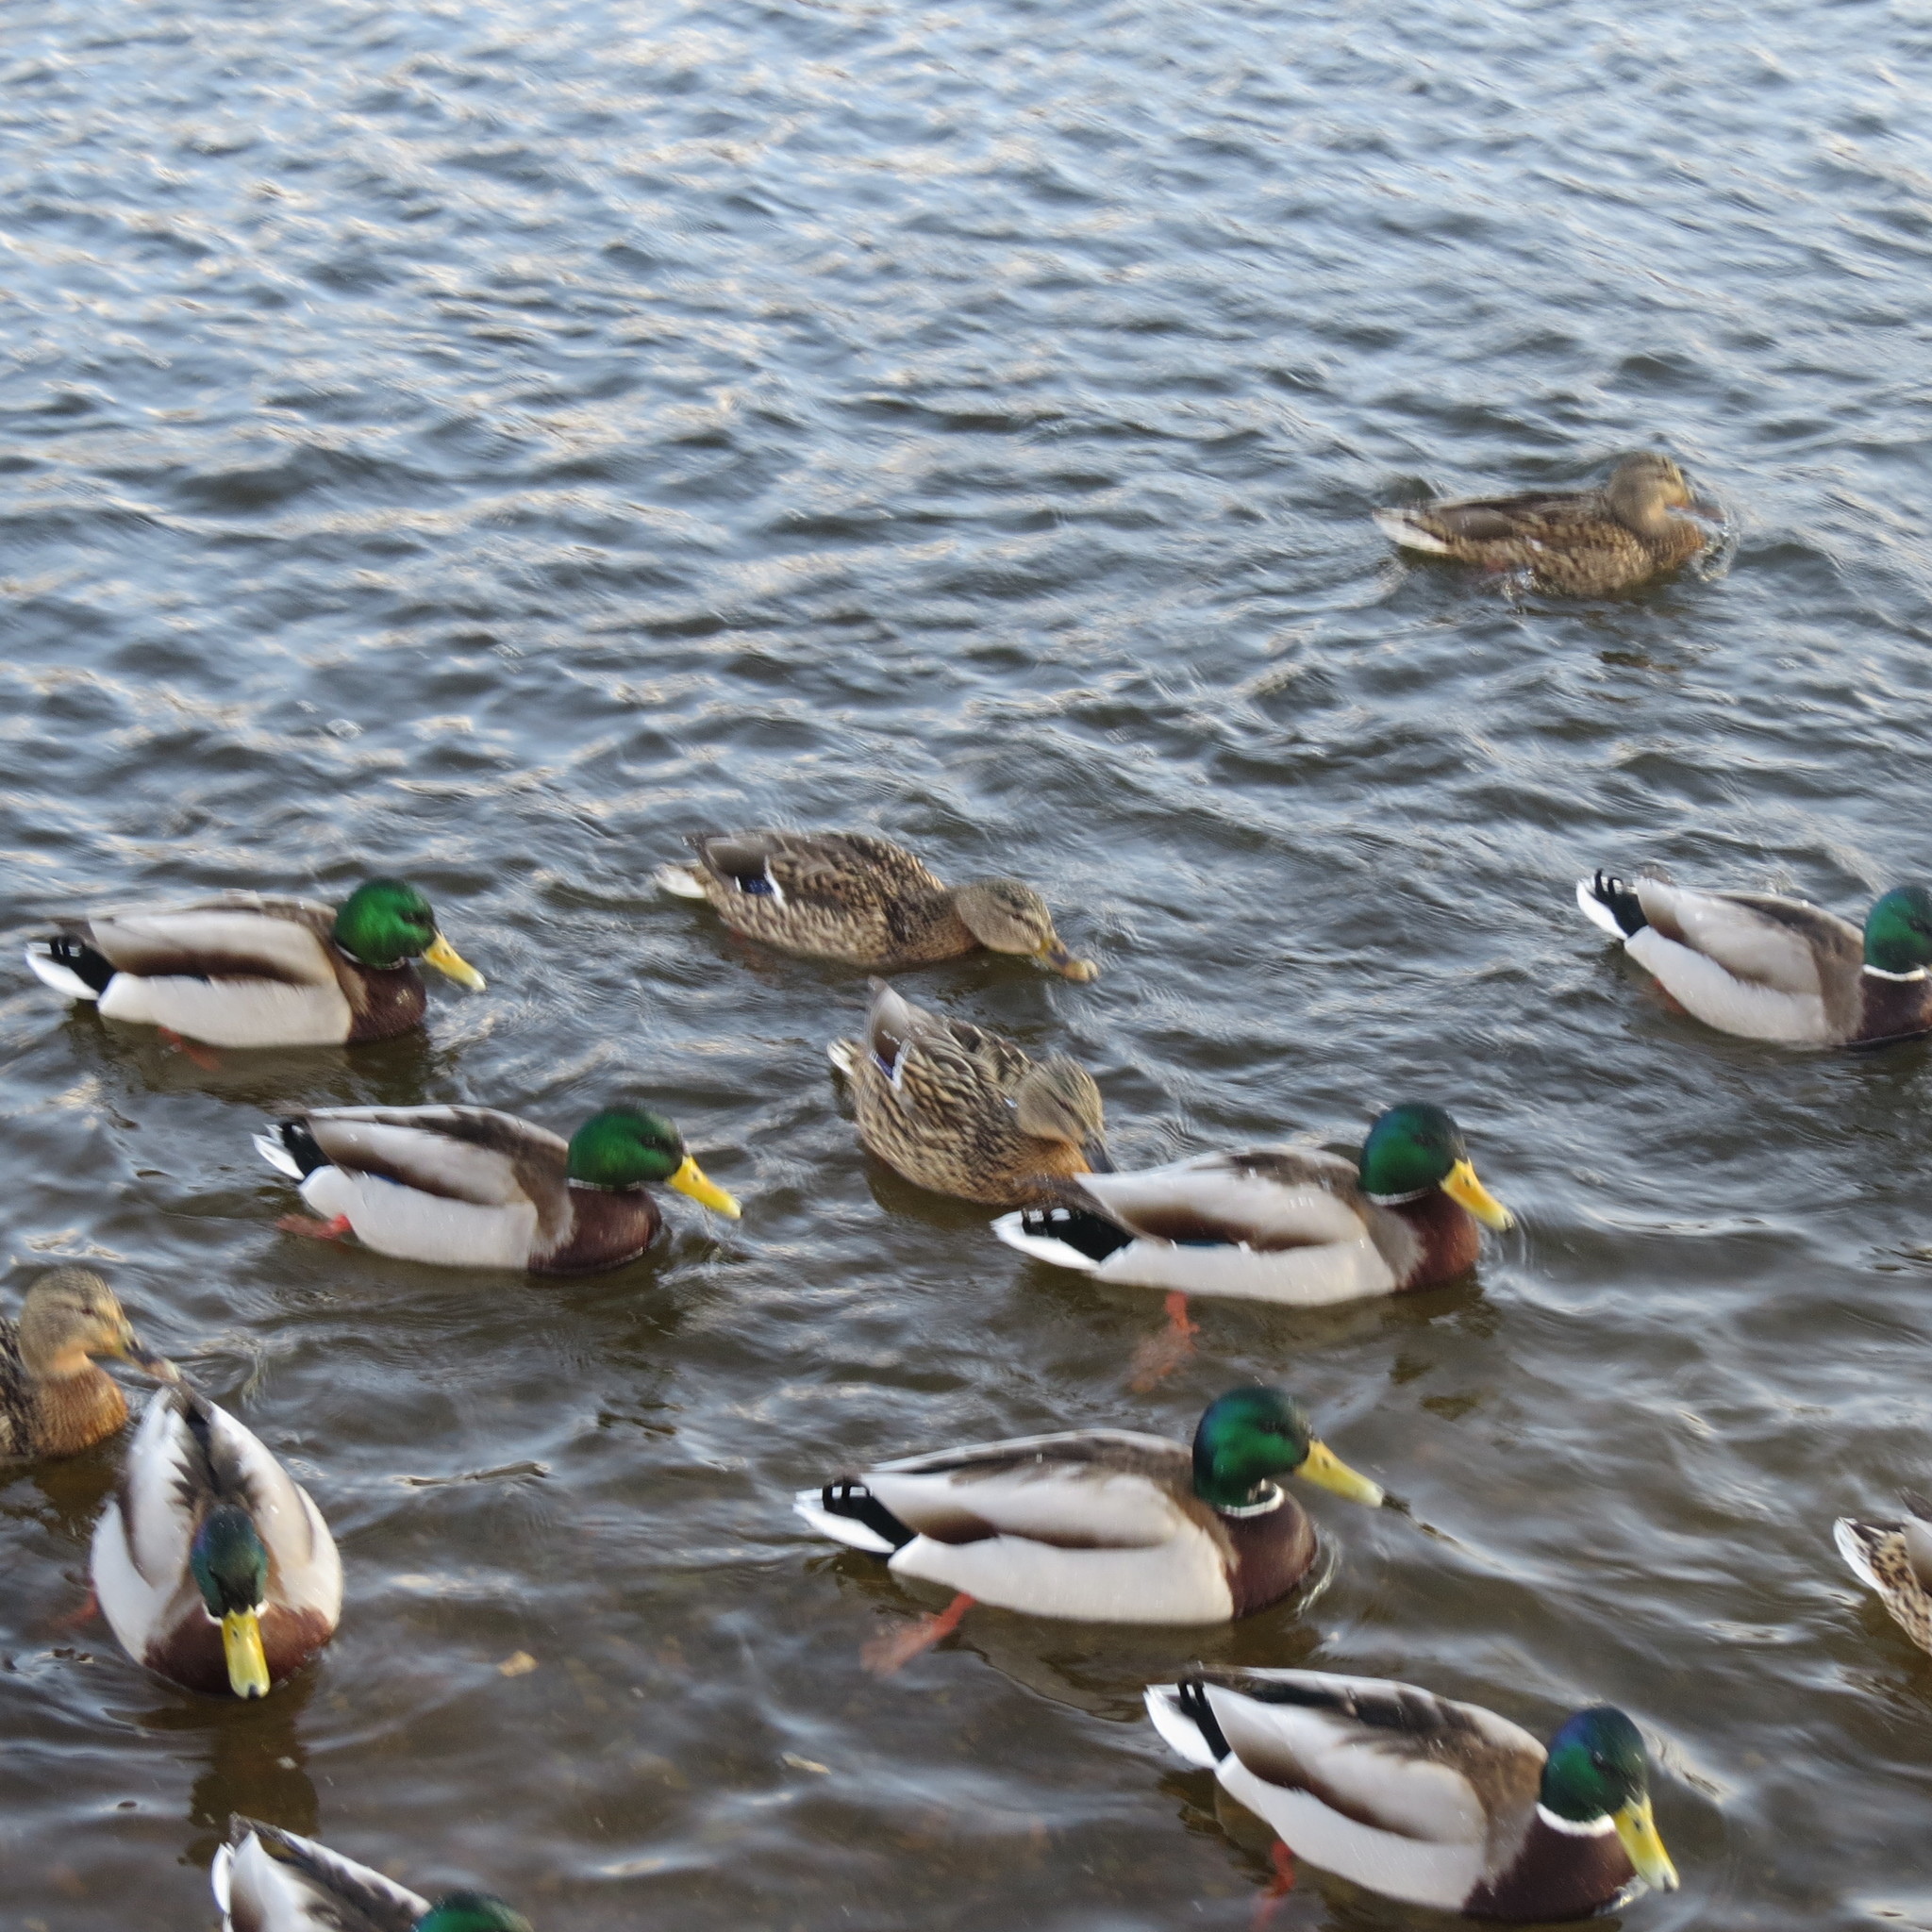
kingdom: Animalia
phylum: Chordata
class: Aves
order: Anseriformes
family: Anatidae
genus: Anas
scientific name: Anas platyrhynchos
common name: Mallard
